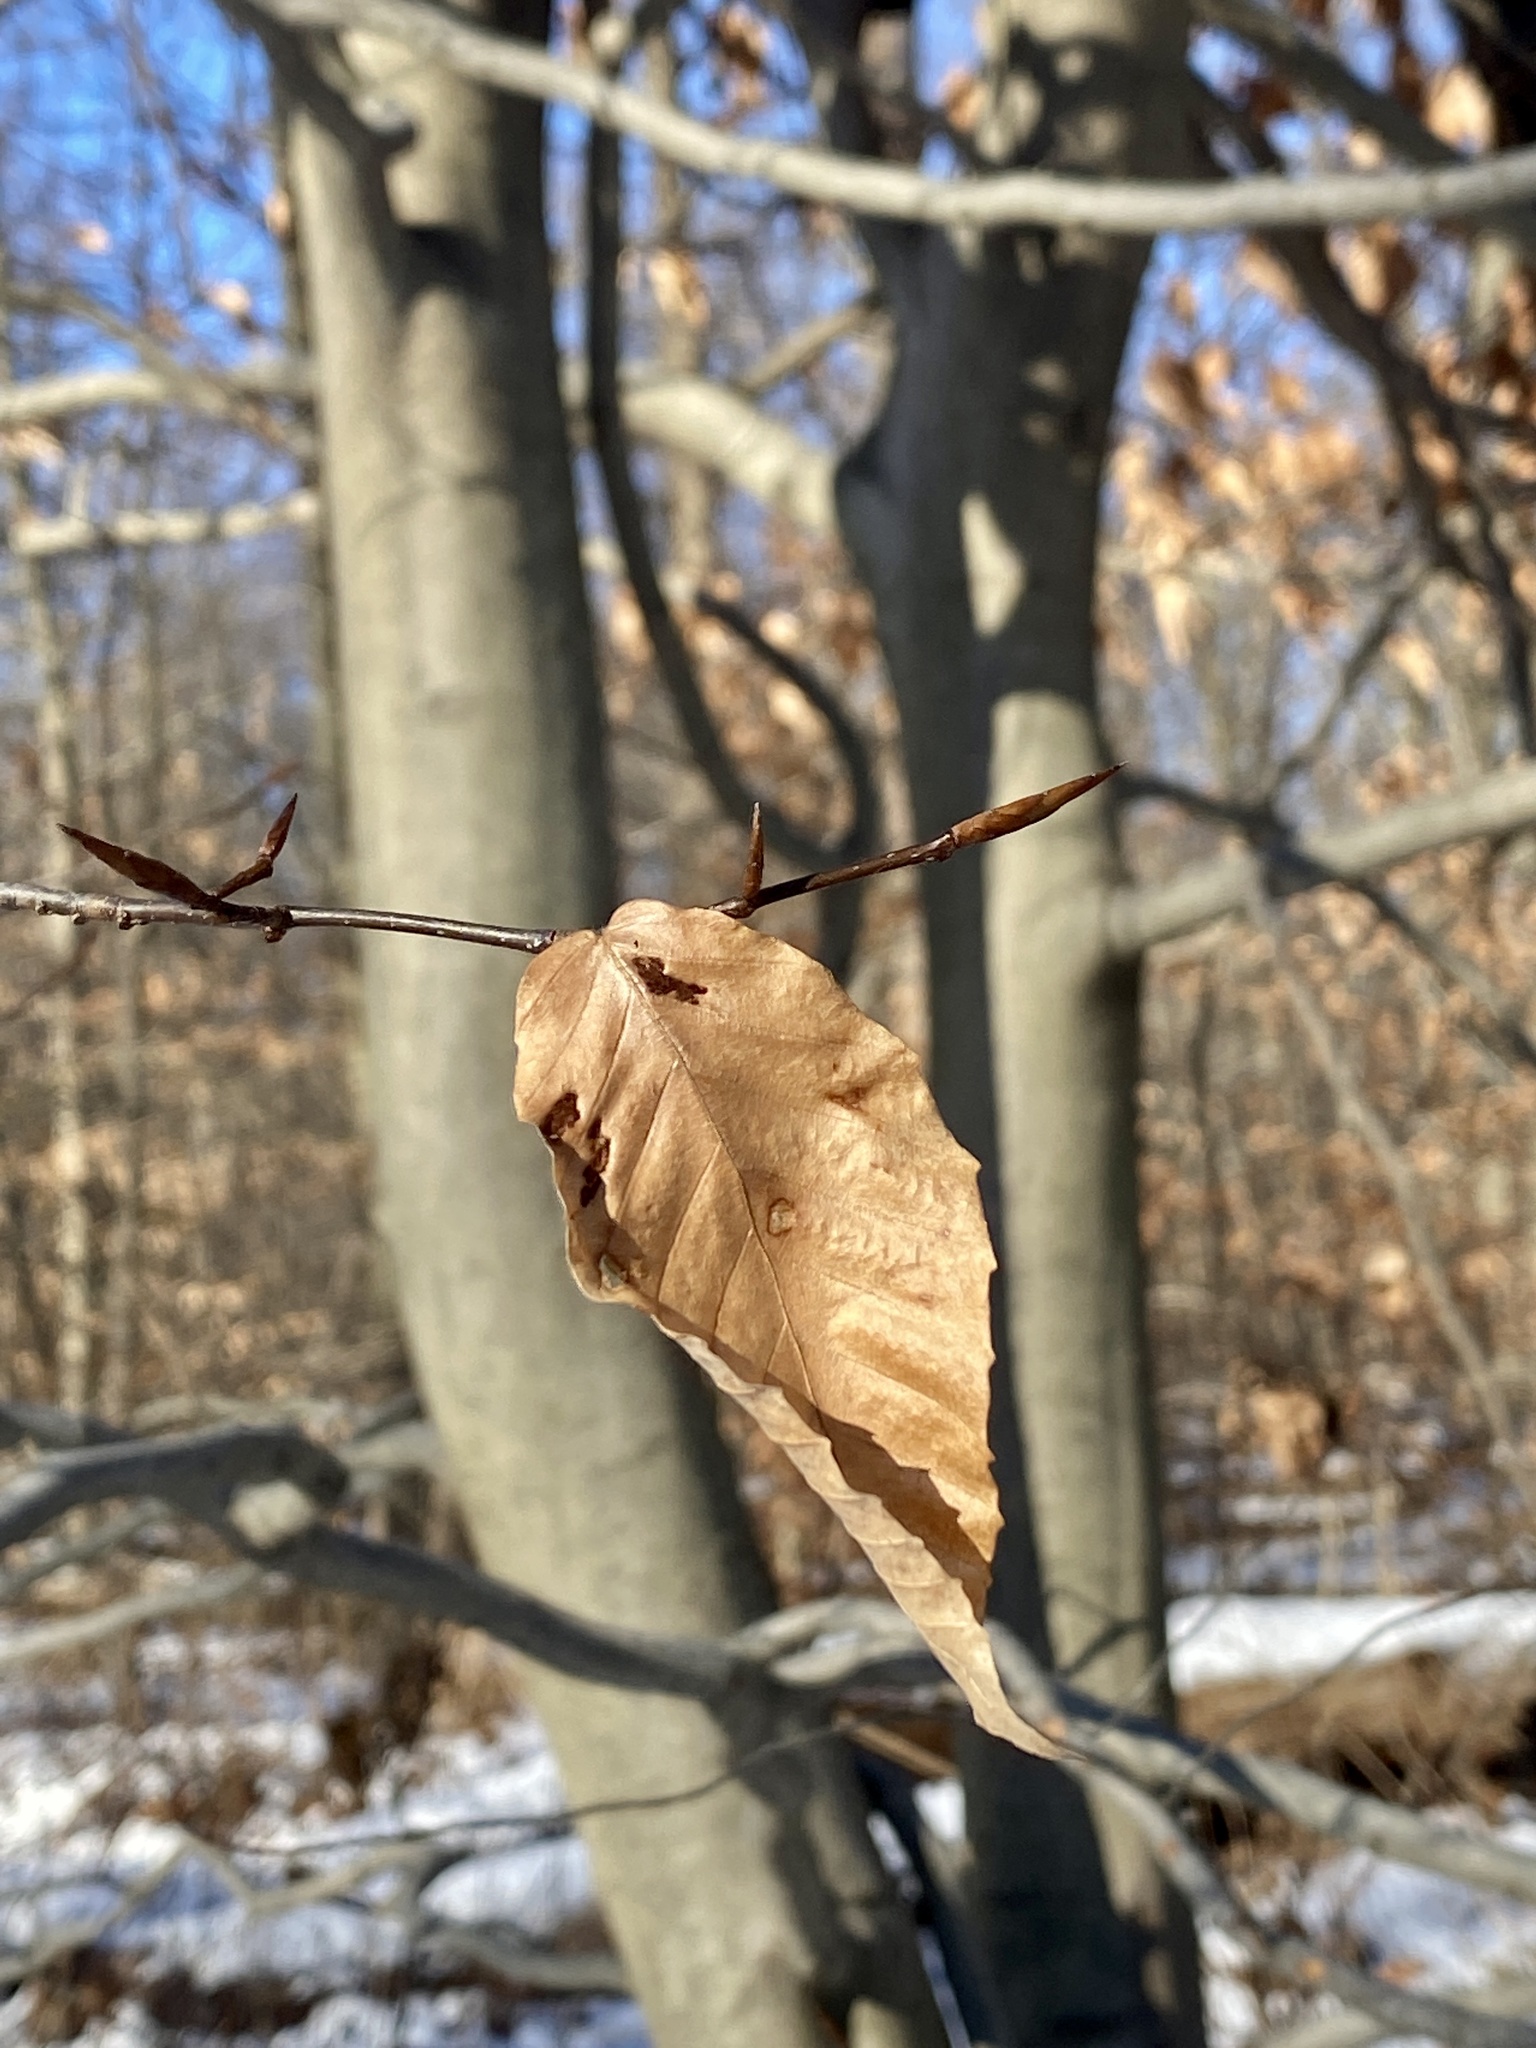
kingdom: Plantae
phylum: Tracheophyta
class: Magnoliopsida
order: Fagales
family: Fagaceae
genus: Fagus
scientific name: Fagus grandifolia
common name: American beech
